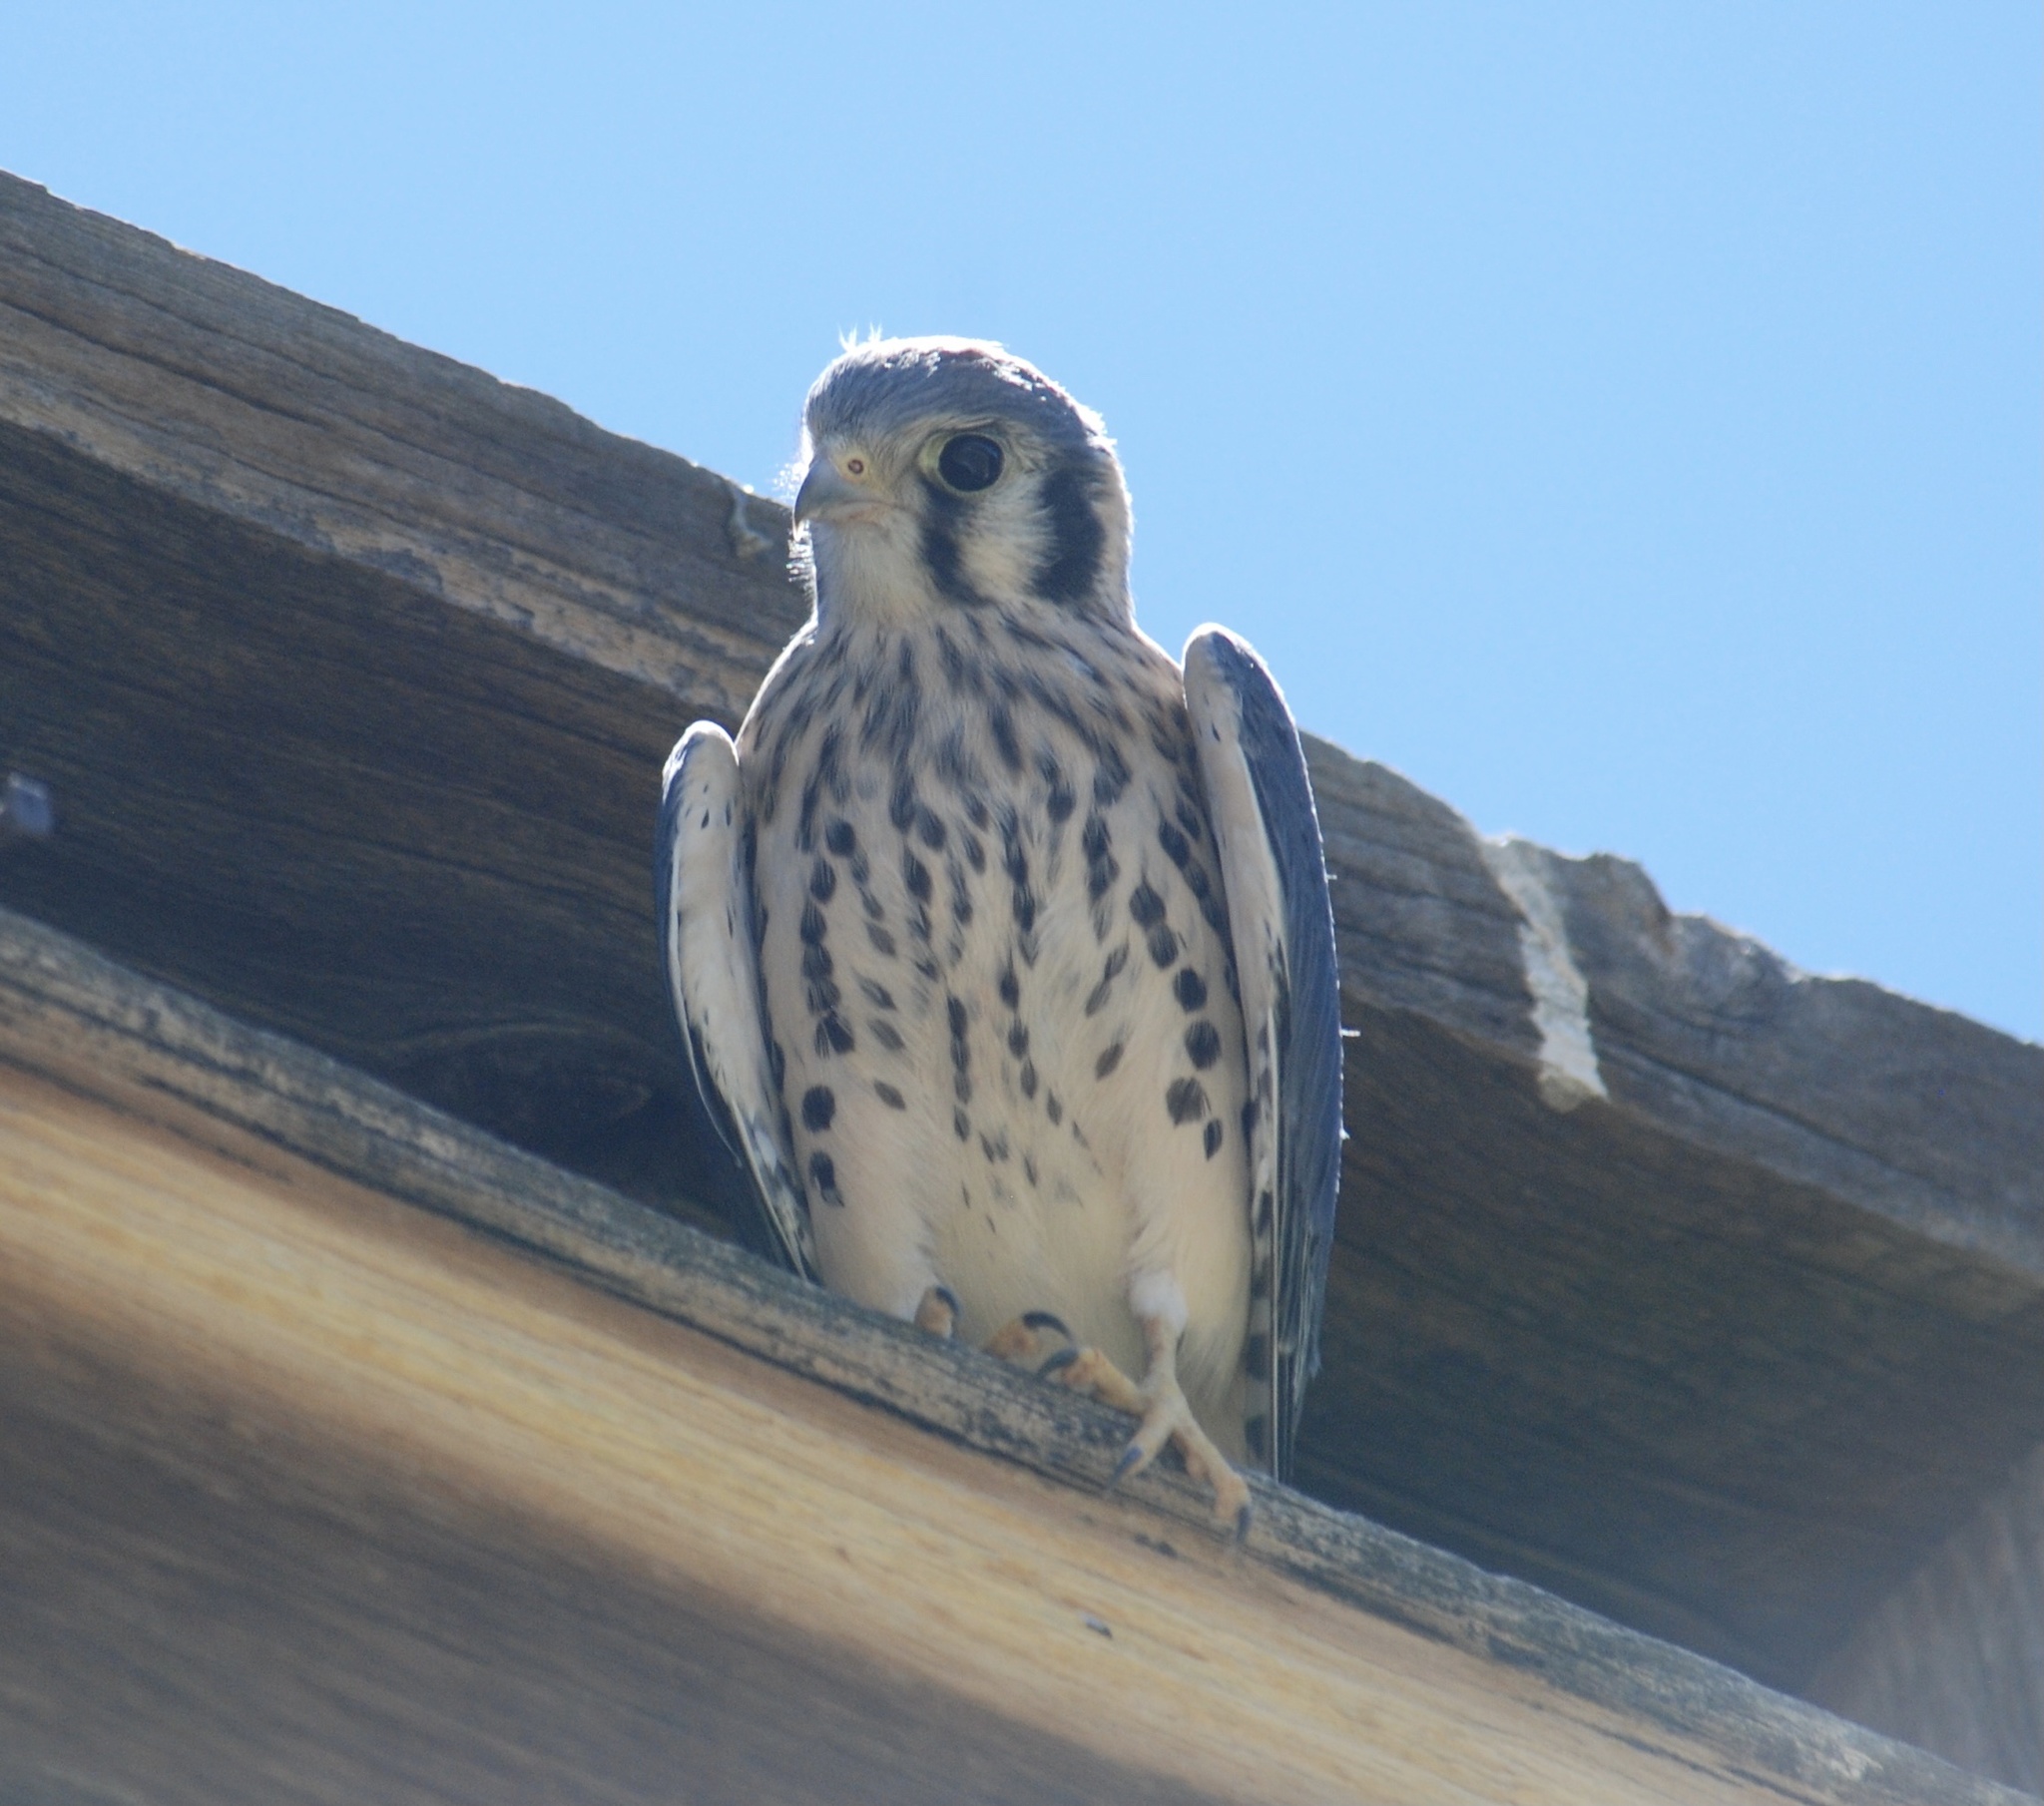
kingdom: Animalia
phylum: Chordata
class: Aves
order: Falconiformes
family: Falconidae
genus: Falco
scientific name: Falco sparverius
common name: American kestrel
